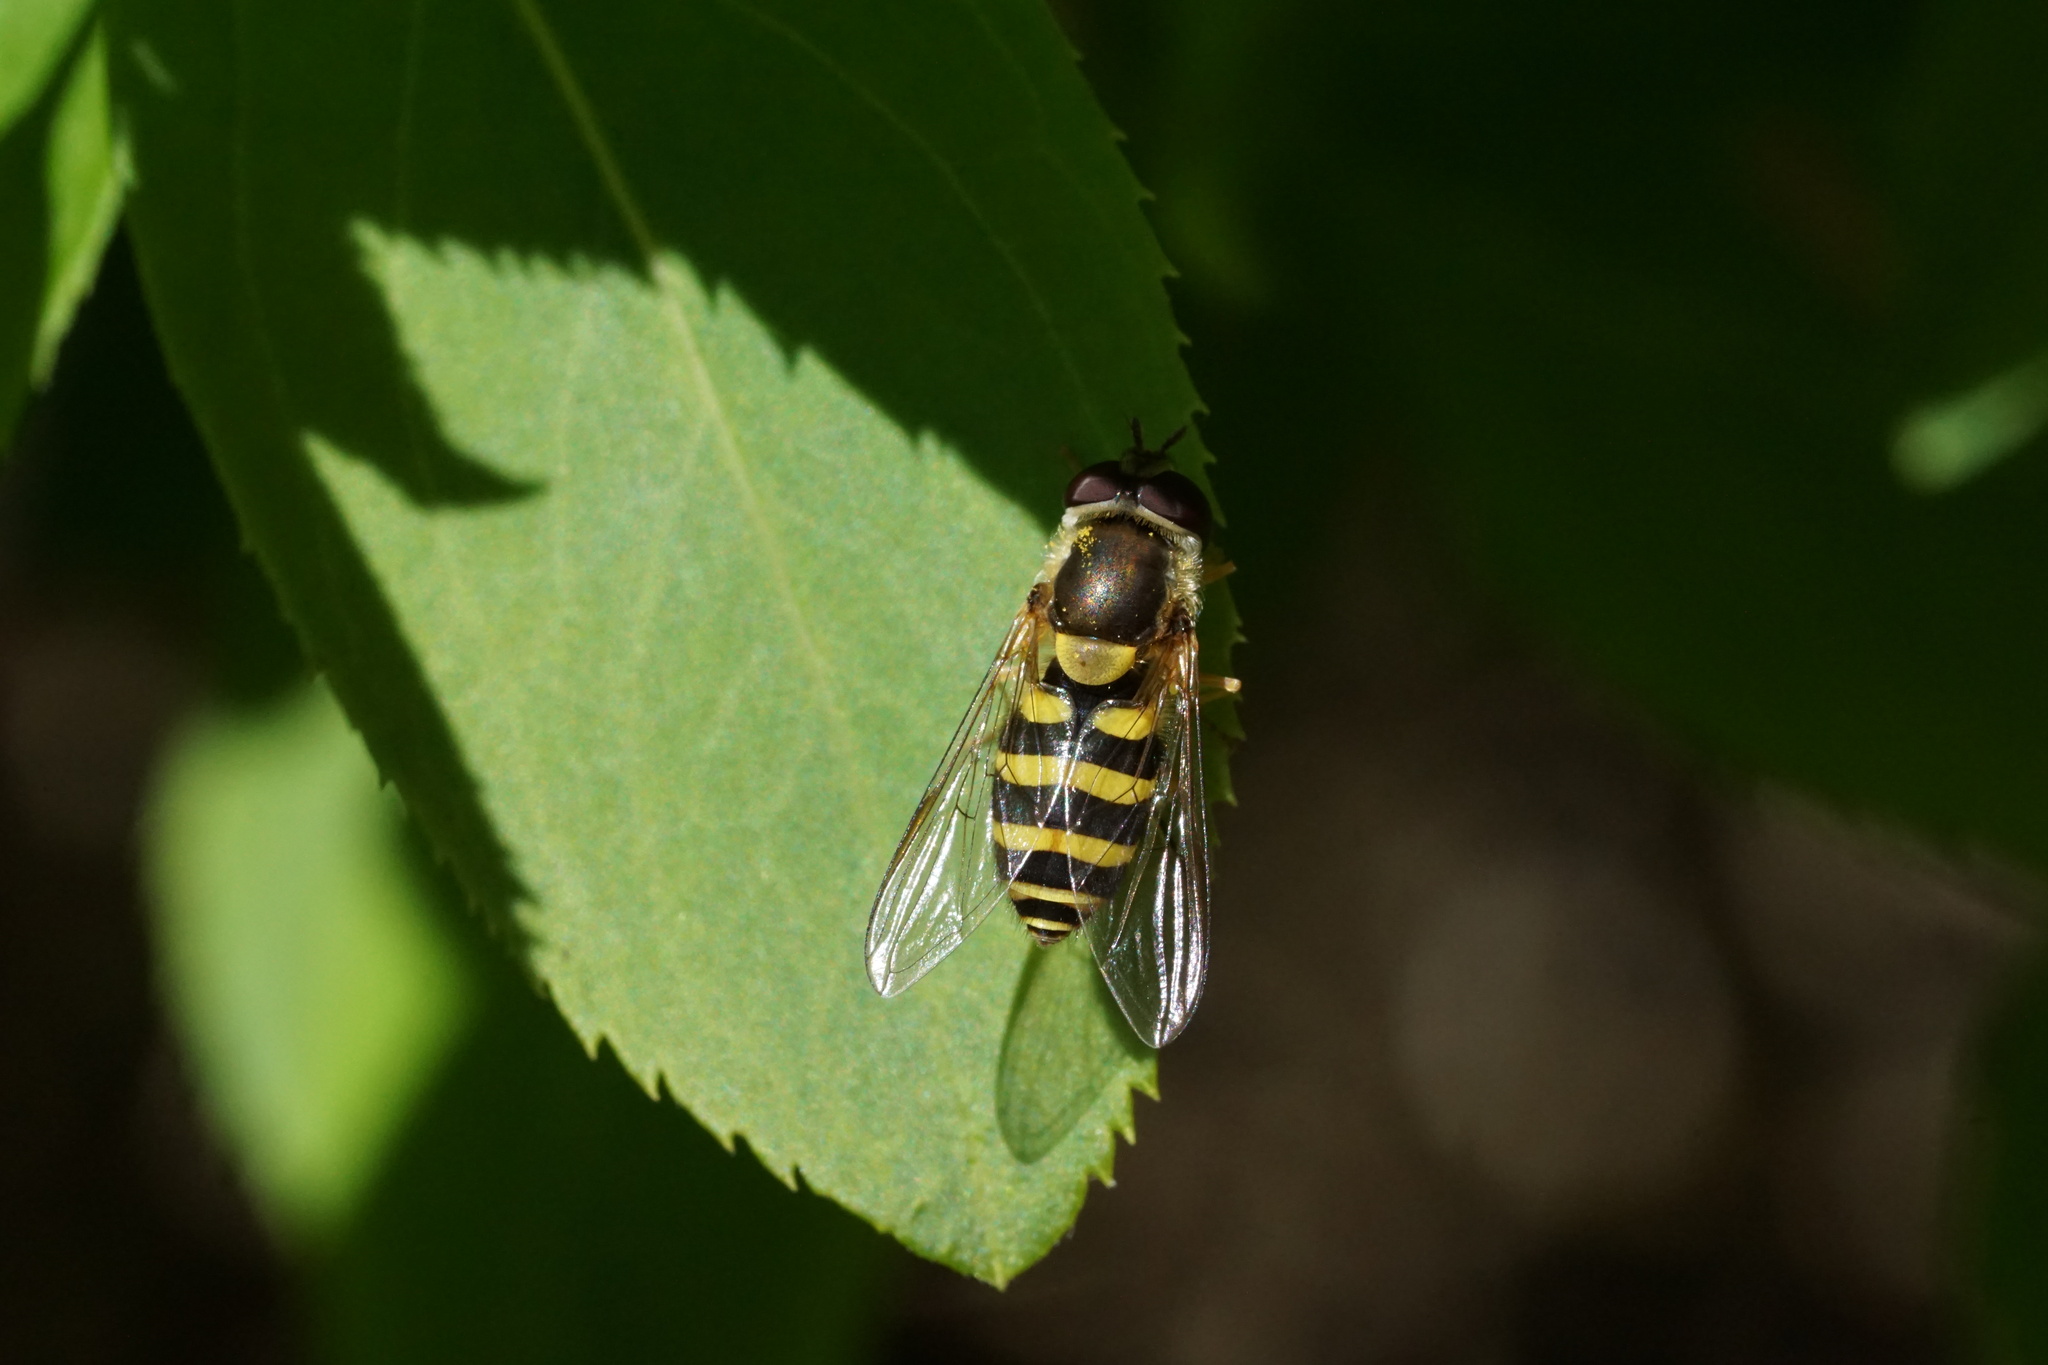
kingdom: Animalia
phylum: Arthropoda
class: Insecta
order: Diptera
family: Syrphidae
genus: Syrphus
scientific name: Syrphus rectus
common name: Yellow-legged flower fly
